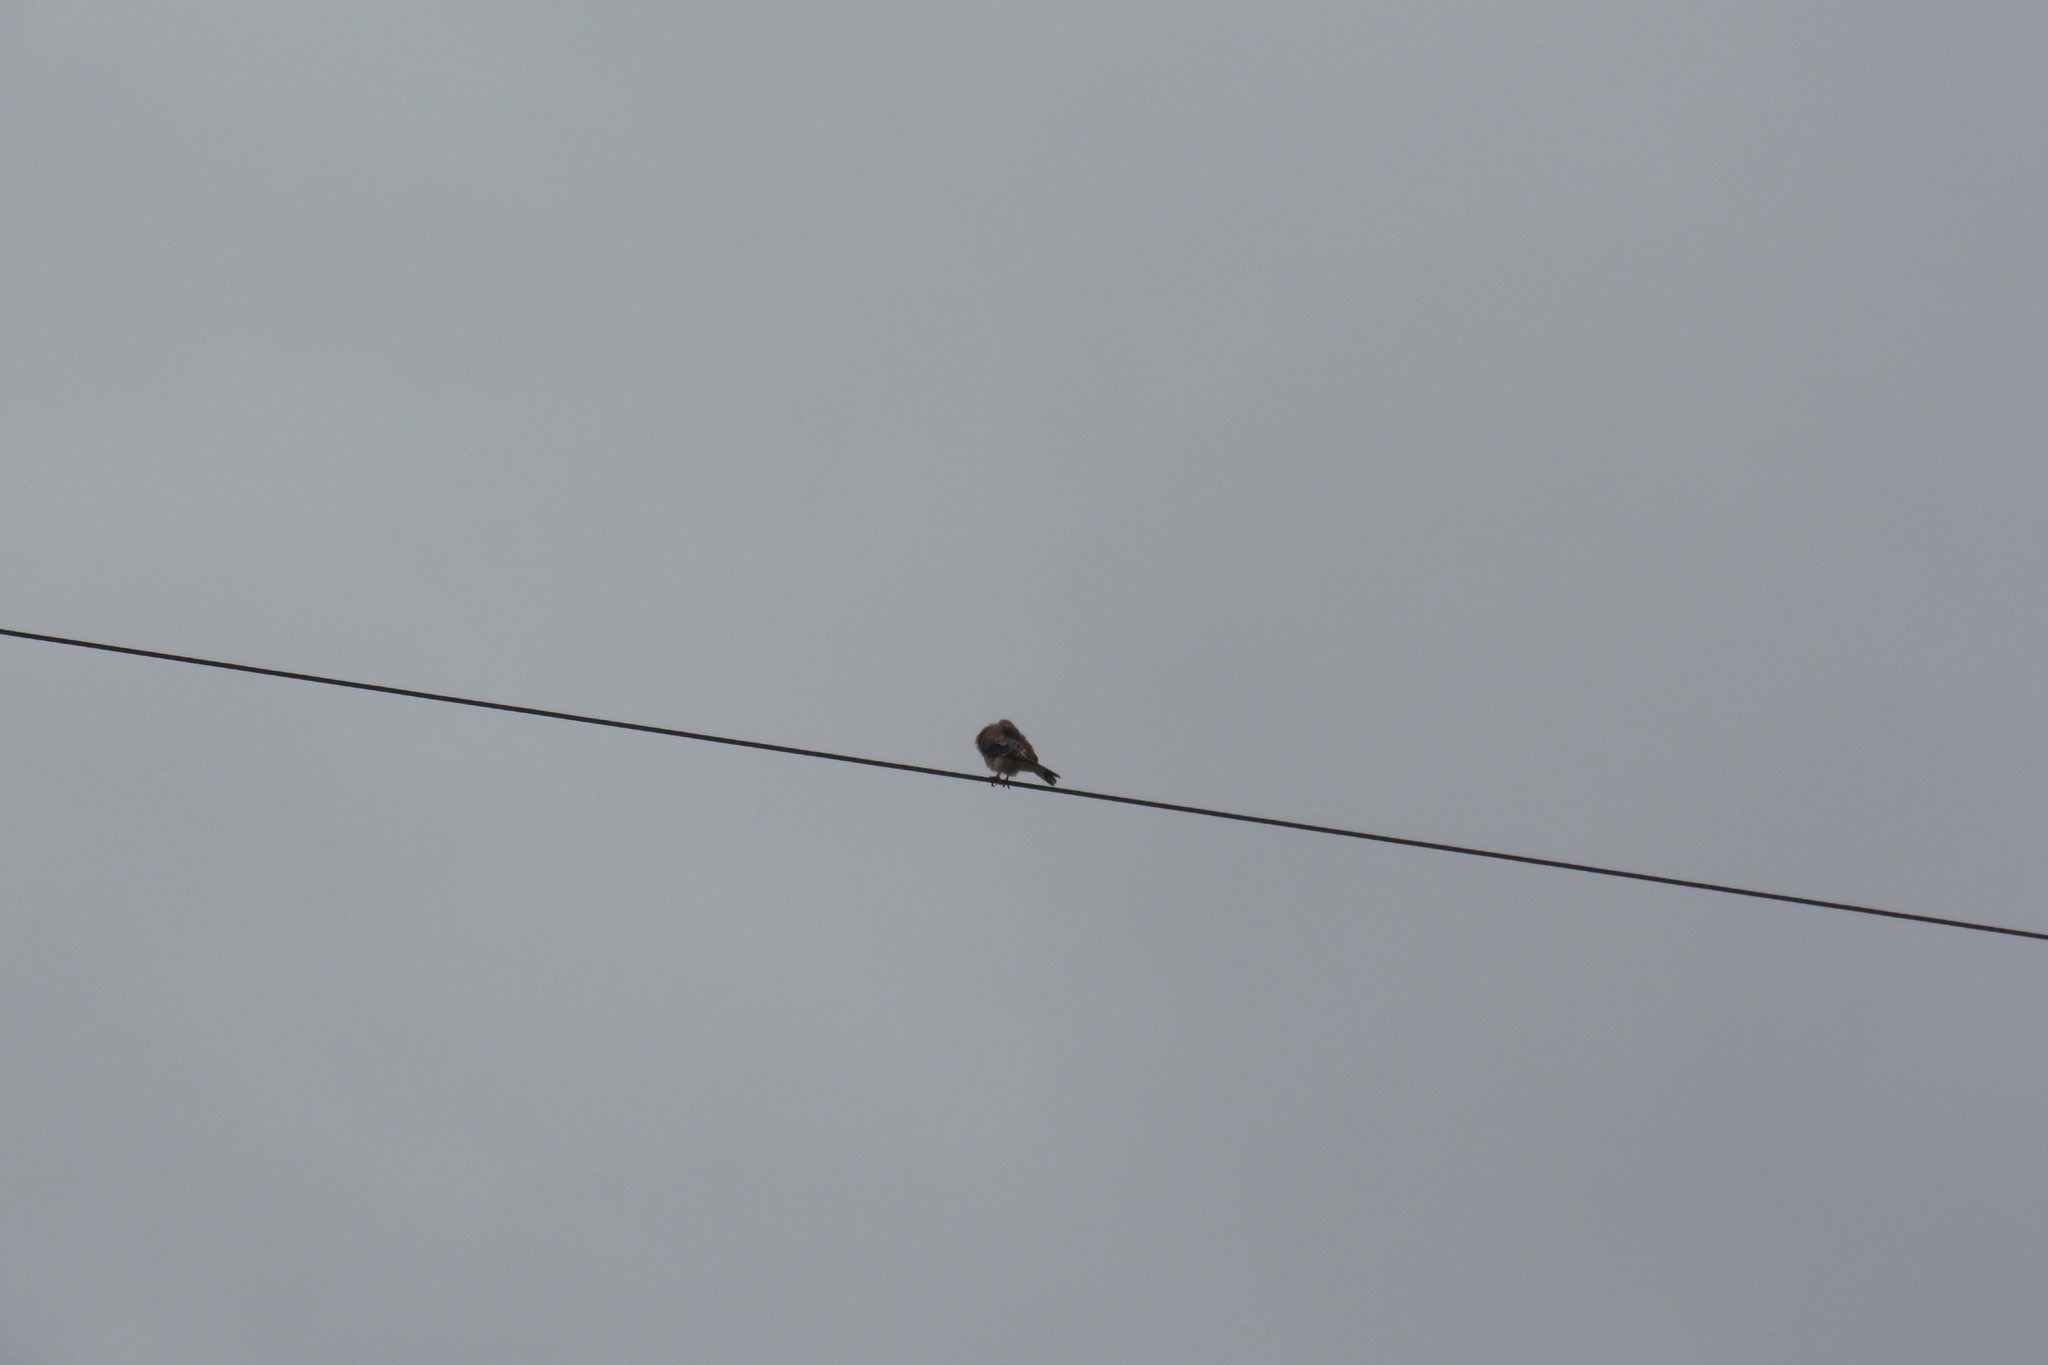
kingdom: Animalia
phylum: Chordata
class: Aves
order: Falconiformes
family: Falconidae
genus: Falco
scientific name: Falco sparverius
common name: American kestrel
